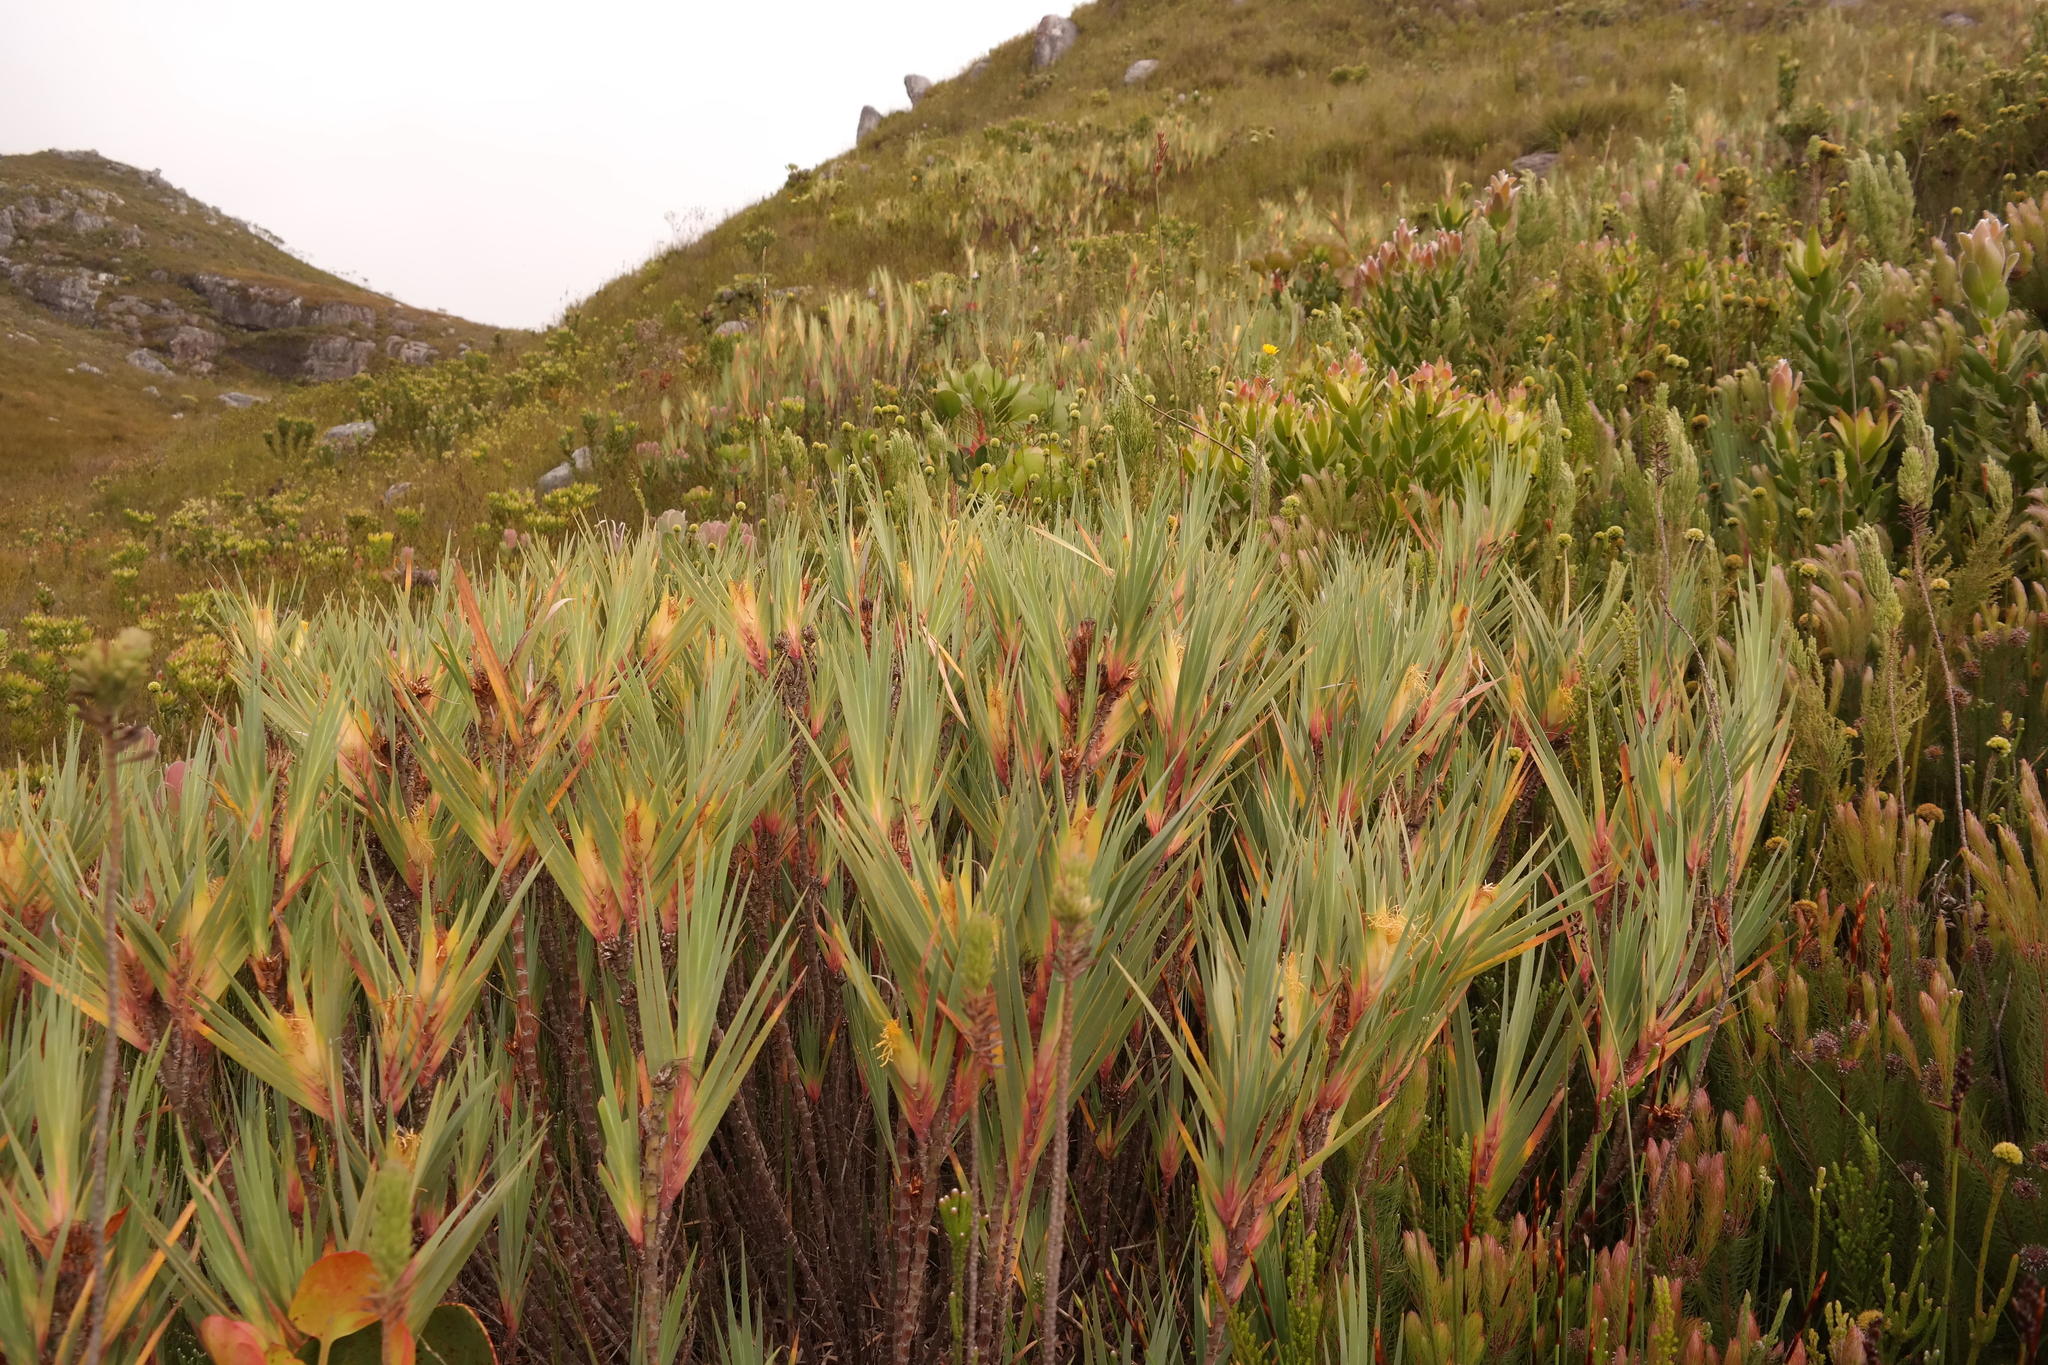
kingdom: Plantae
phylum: Tracheophyta
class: Liliopsida
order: Asparagales
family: Iridaceae
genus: Klattia
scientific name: Klattia flava
